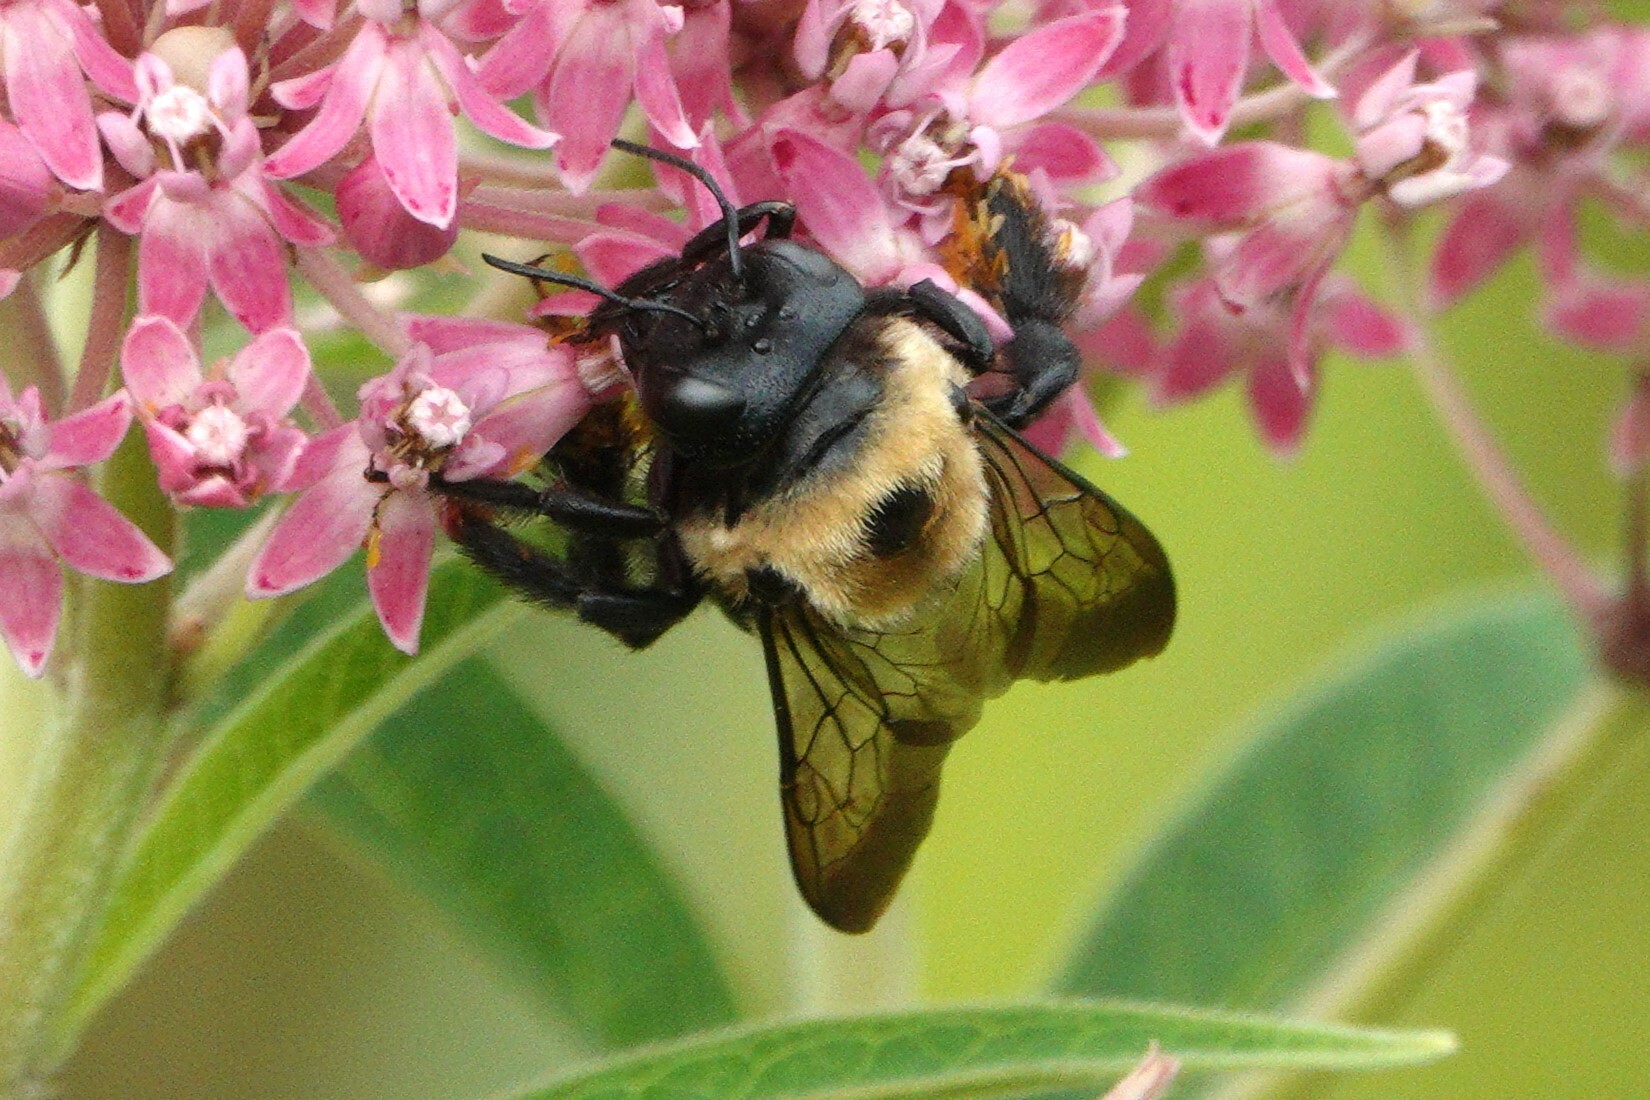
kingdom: Animalia
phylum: Arthropoda
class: Insecta
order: Hymenoptera
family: Apidae
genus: Xylocopa
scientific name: Xylocopa virginica
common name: Carpenter bee
